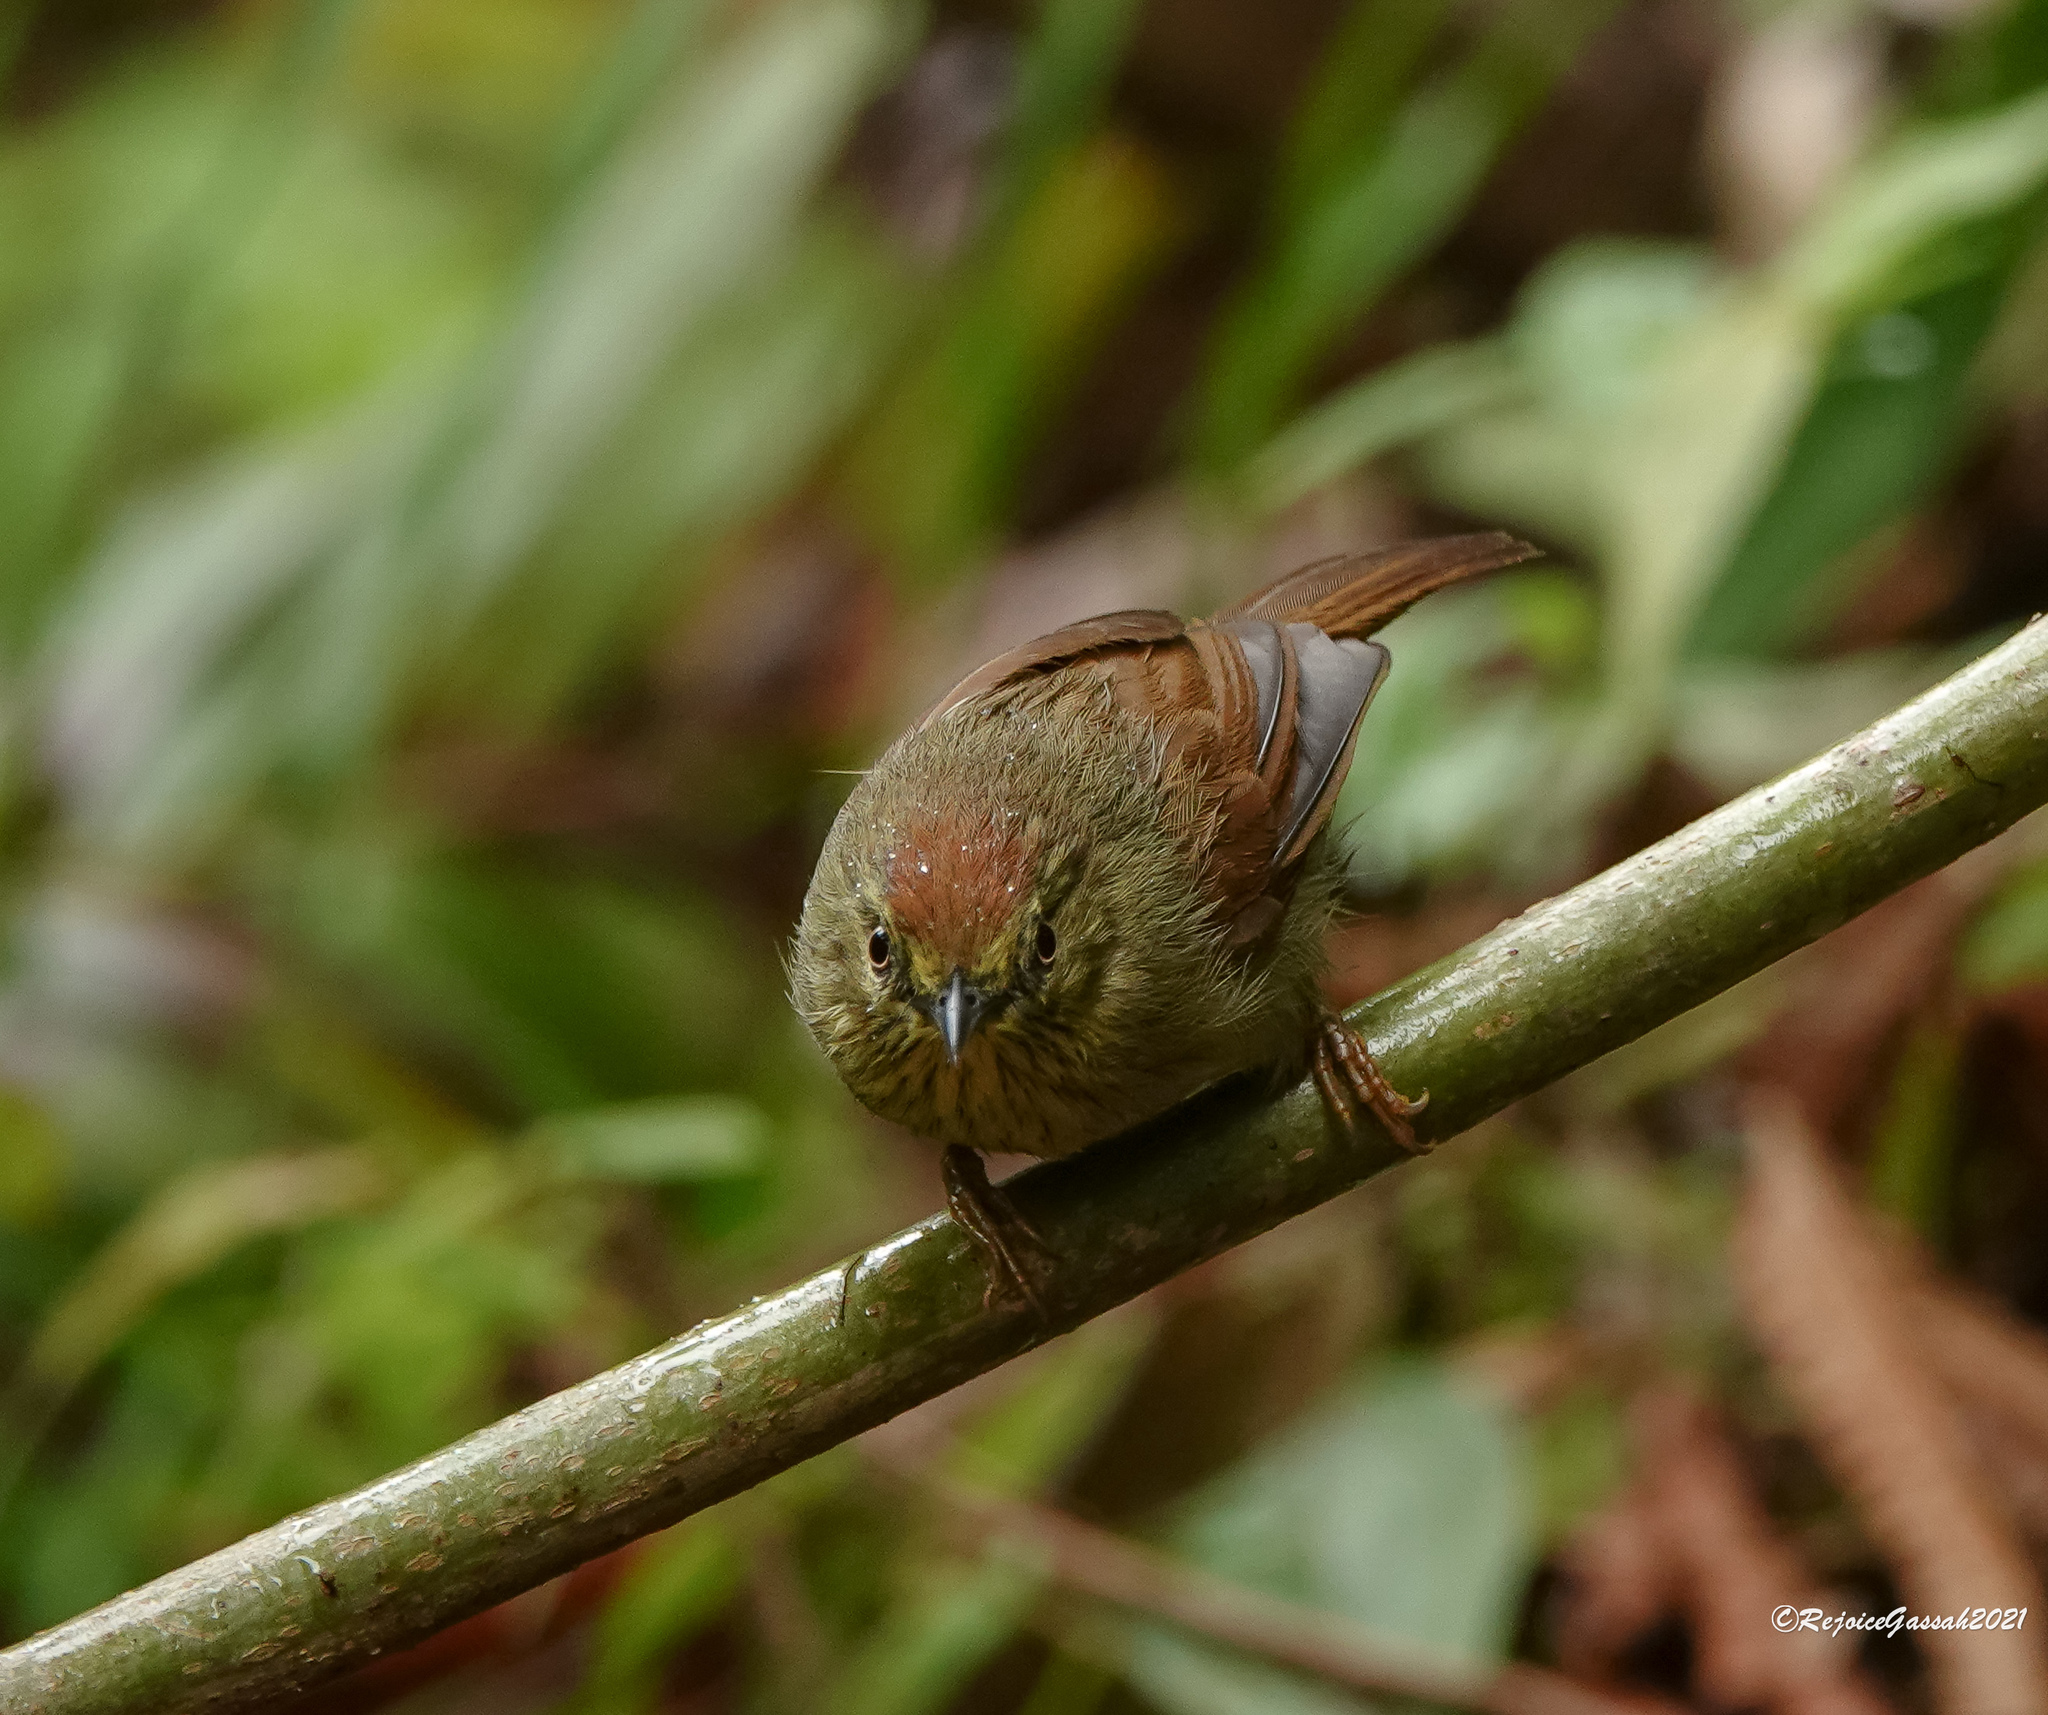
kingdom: Animalia
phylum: Chordata
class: Aves
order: Passeriformes
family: Timaliidae
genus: Macronus
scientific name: Macronus gularis
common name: Striped tit-babbler
